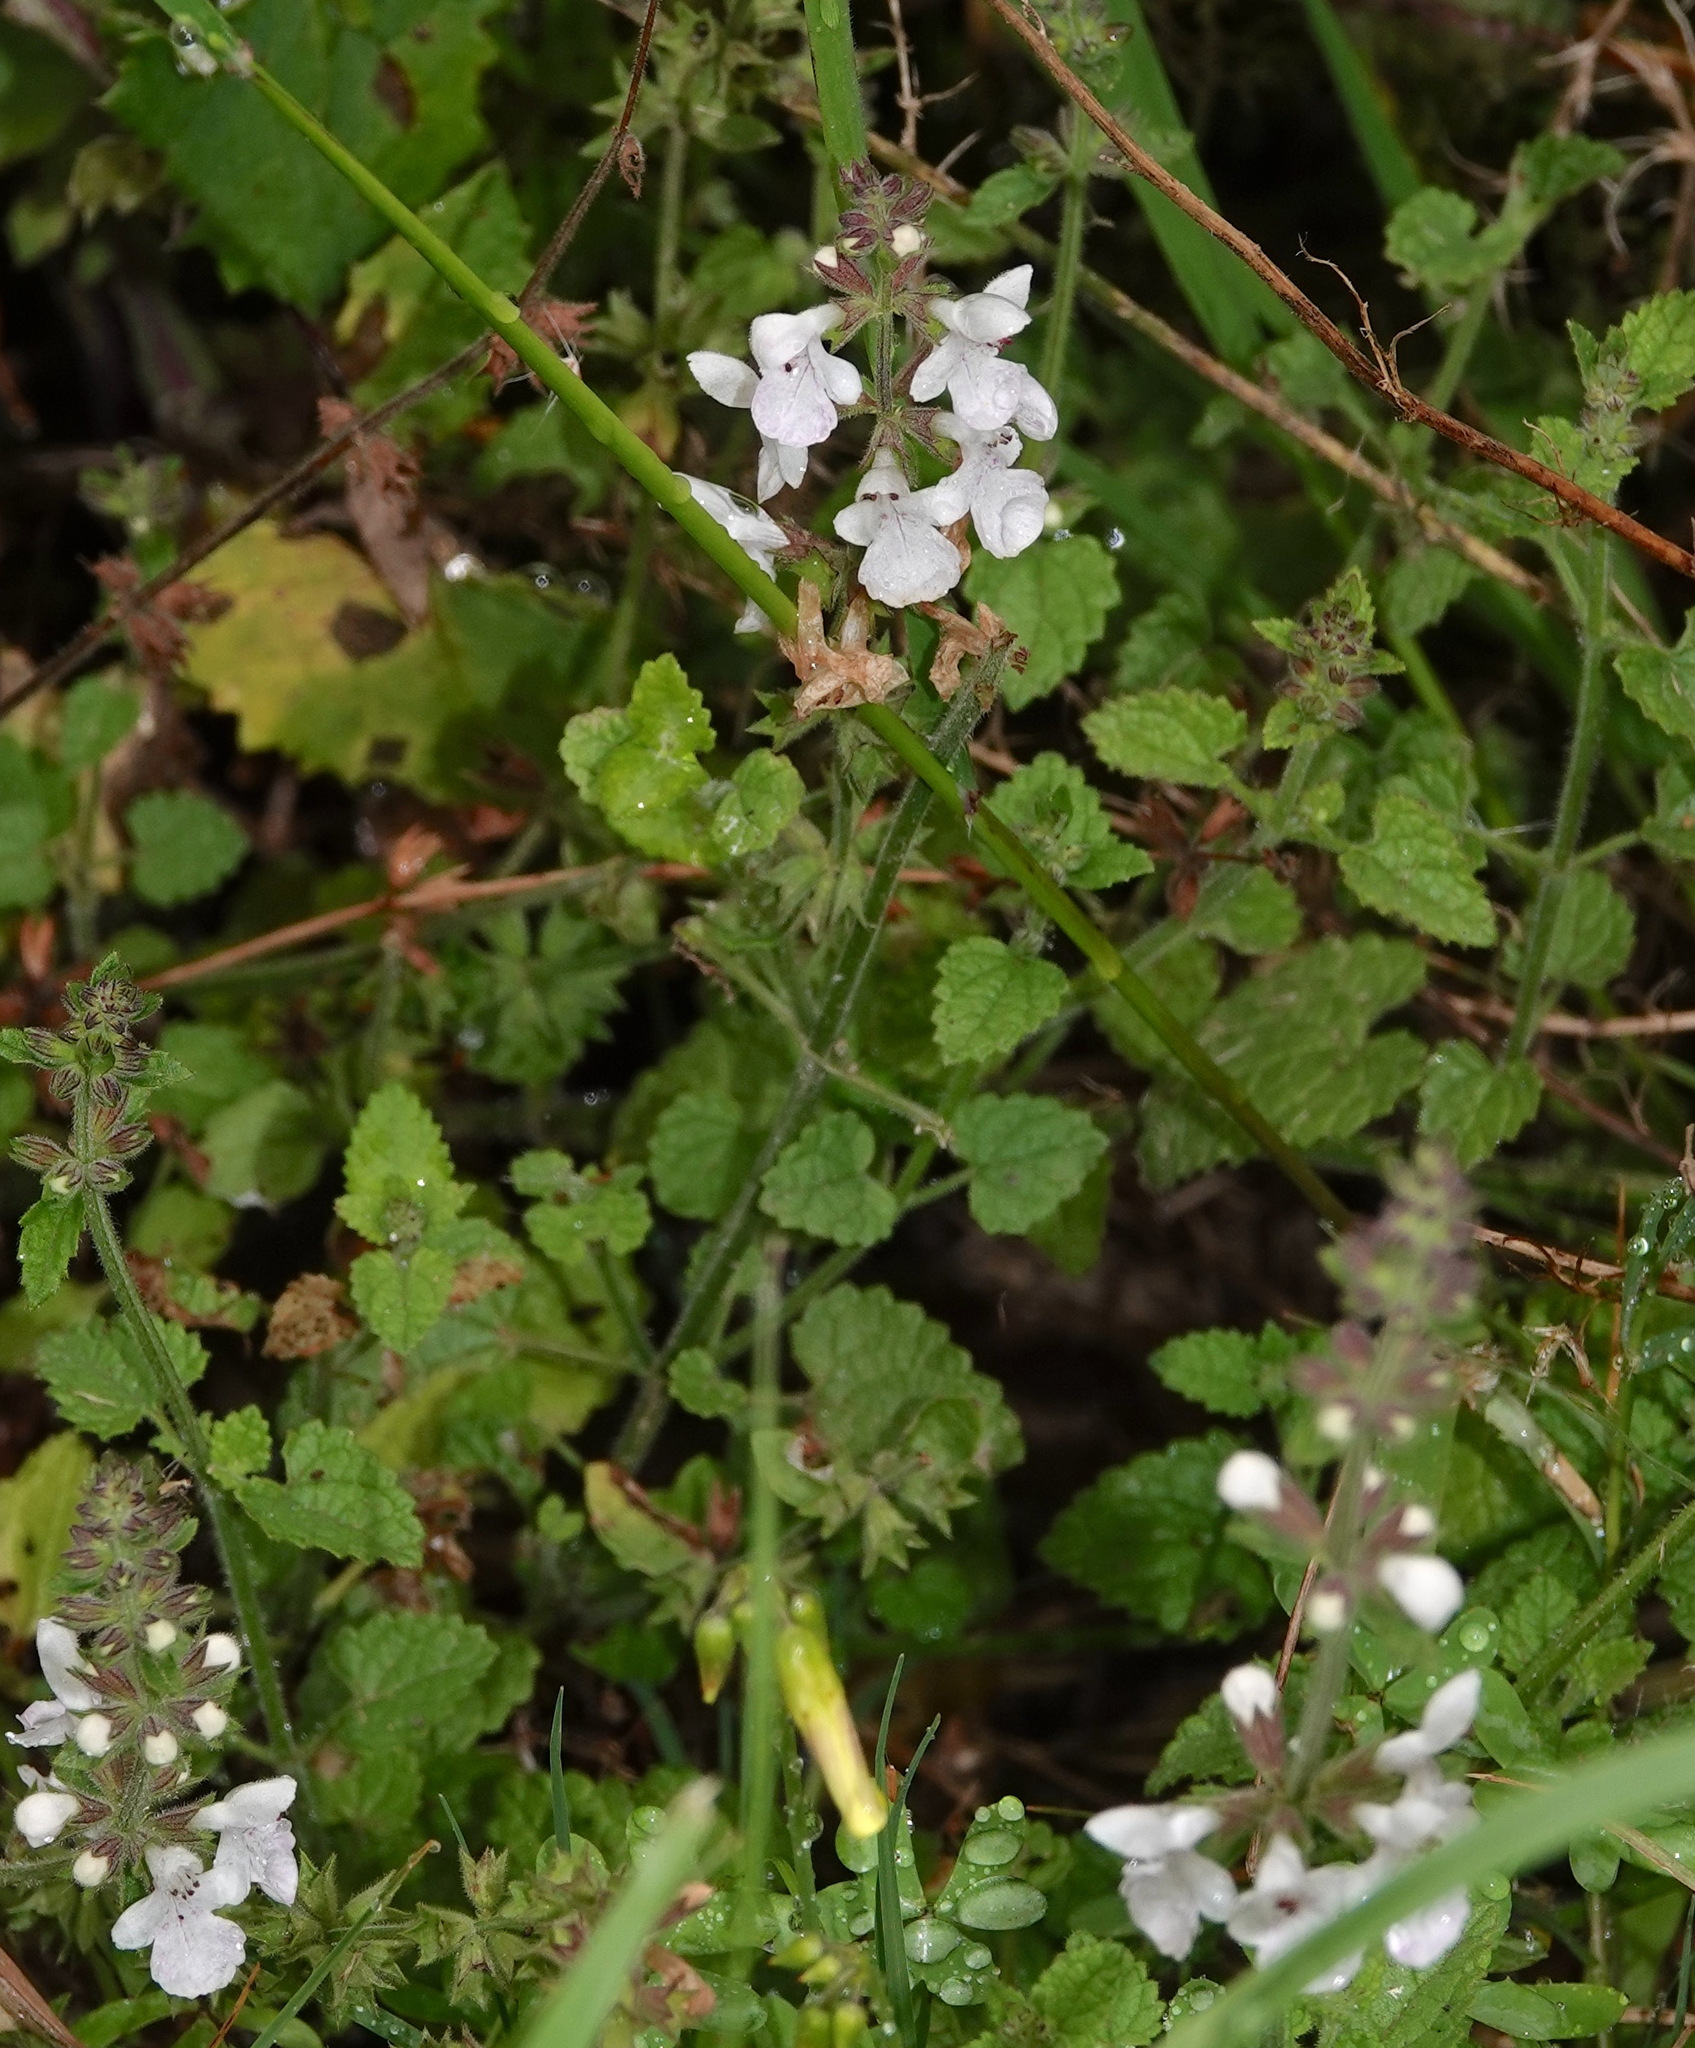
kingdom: Plantae
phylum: Tracheophyta
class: Magnoliopsida
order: Lamiales
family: Lamiaceae
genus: Stachys
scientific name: Stachys aethiopica
